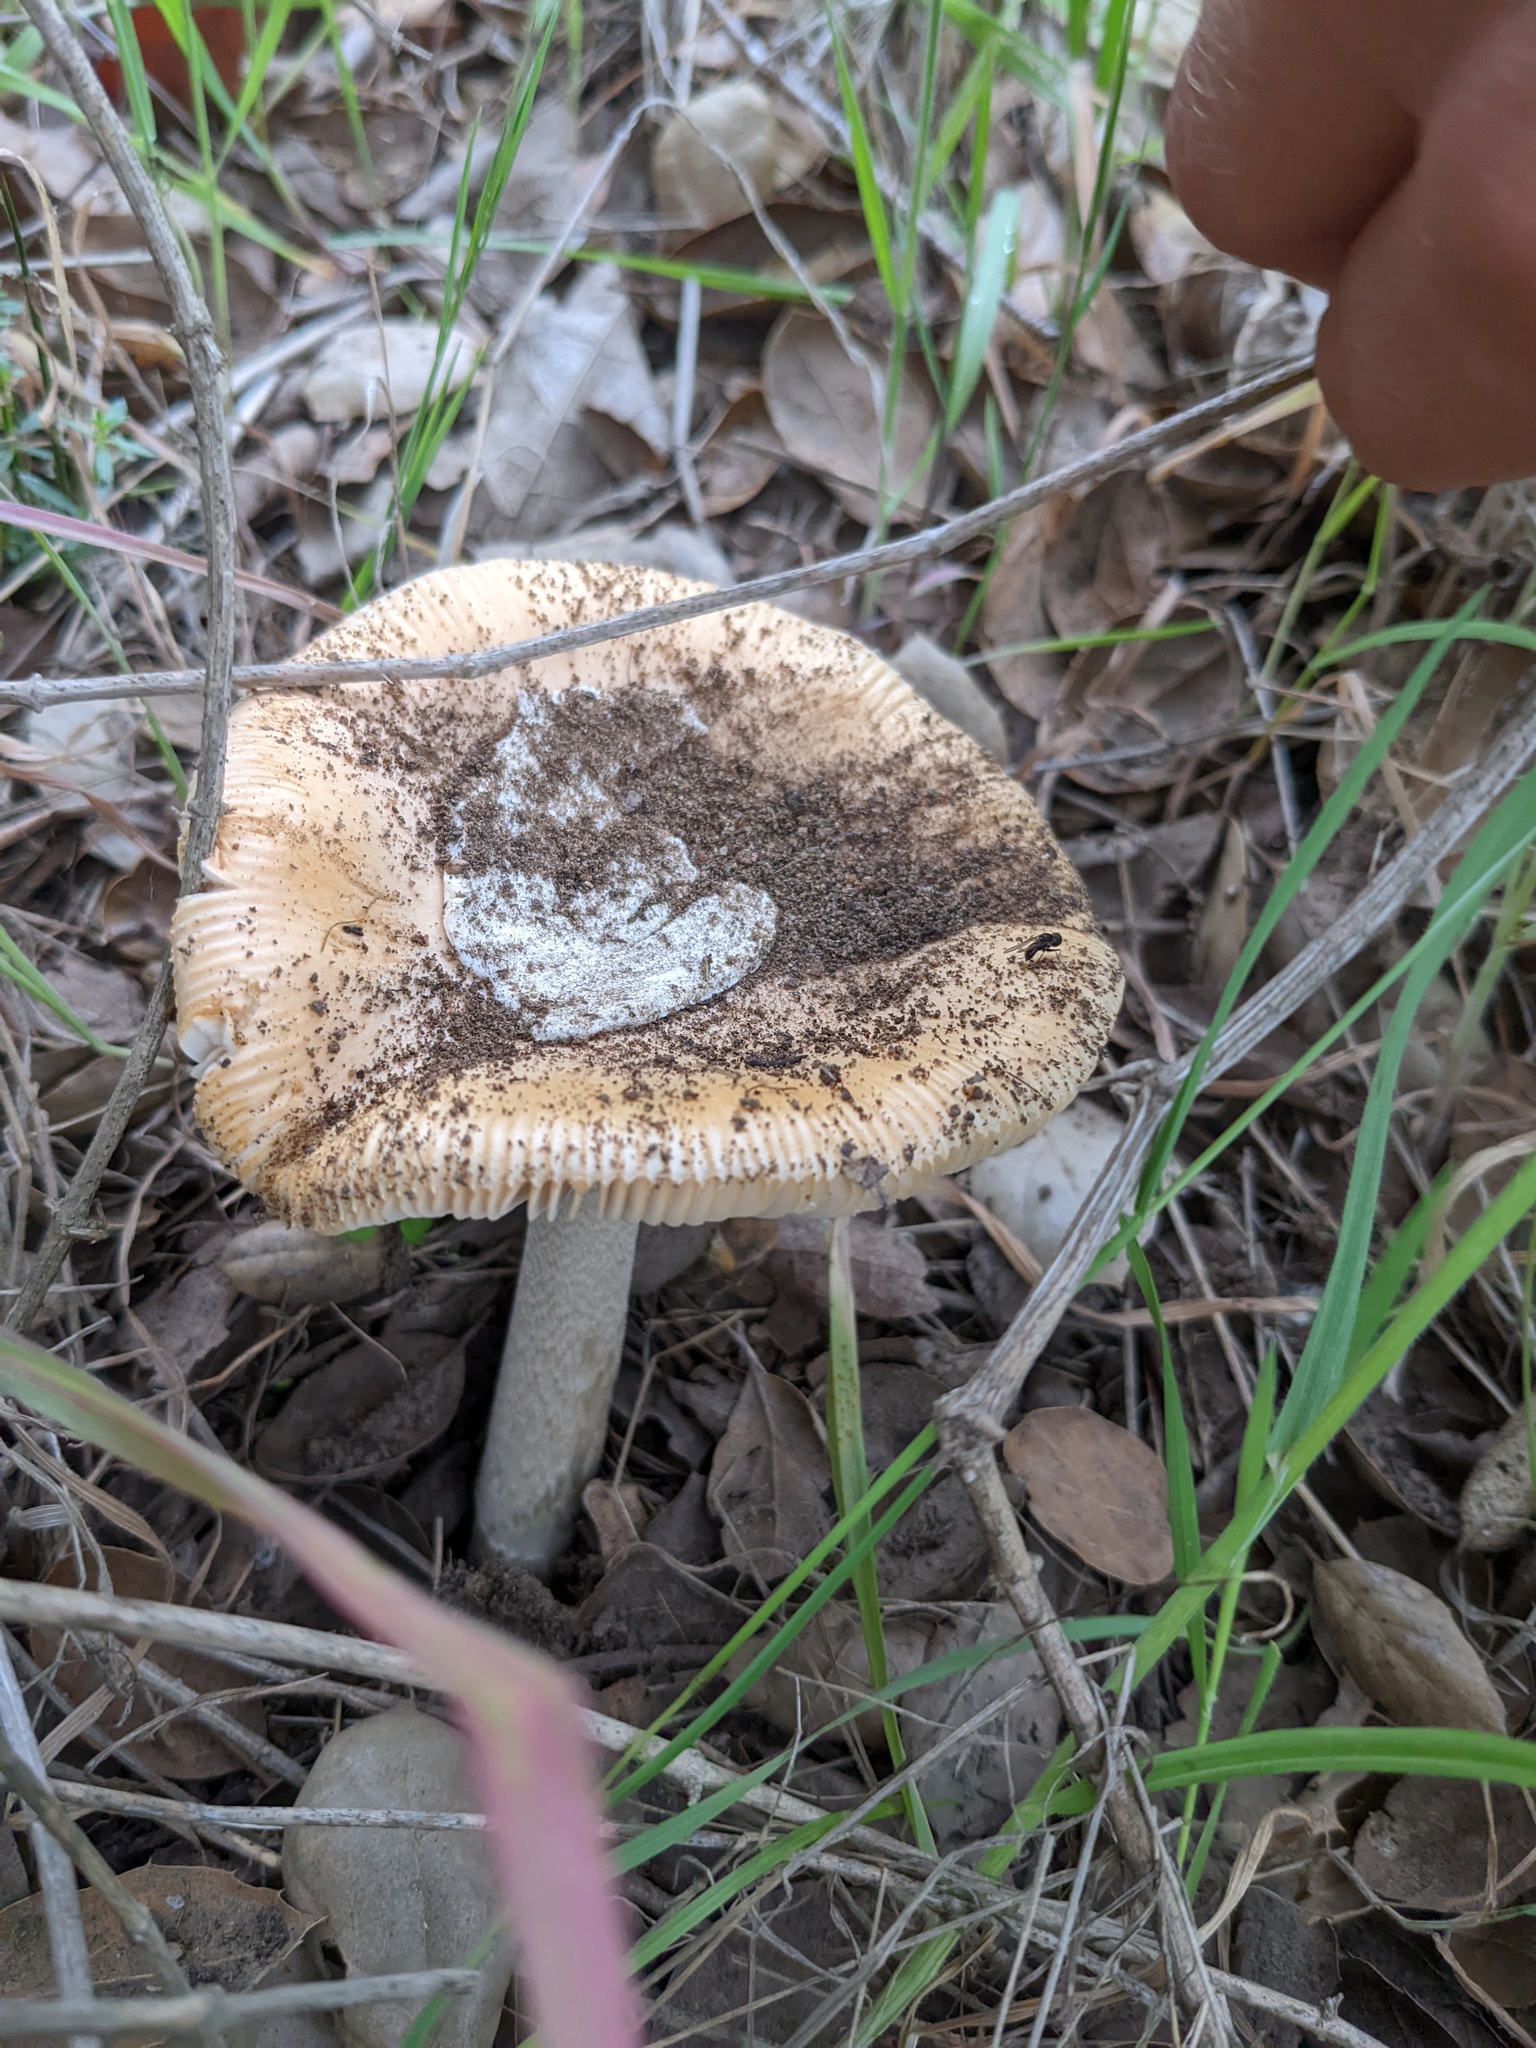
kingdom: Fungi
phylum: Basidiomycota
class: Agaricomycetes
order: Agaricales
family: Amanitaceae
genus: Amanita
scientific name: Amanita velosa
